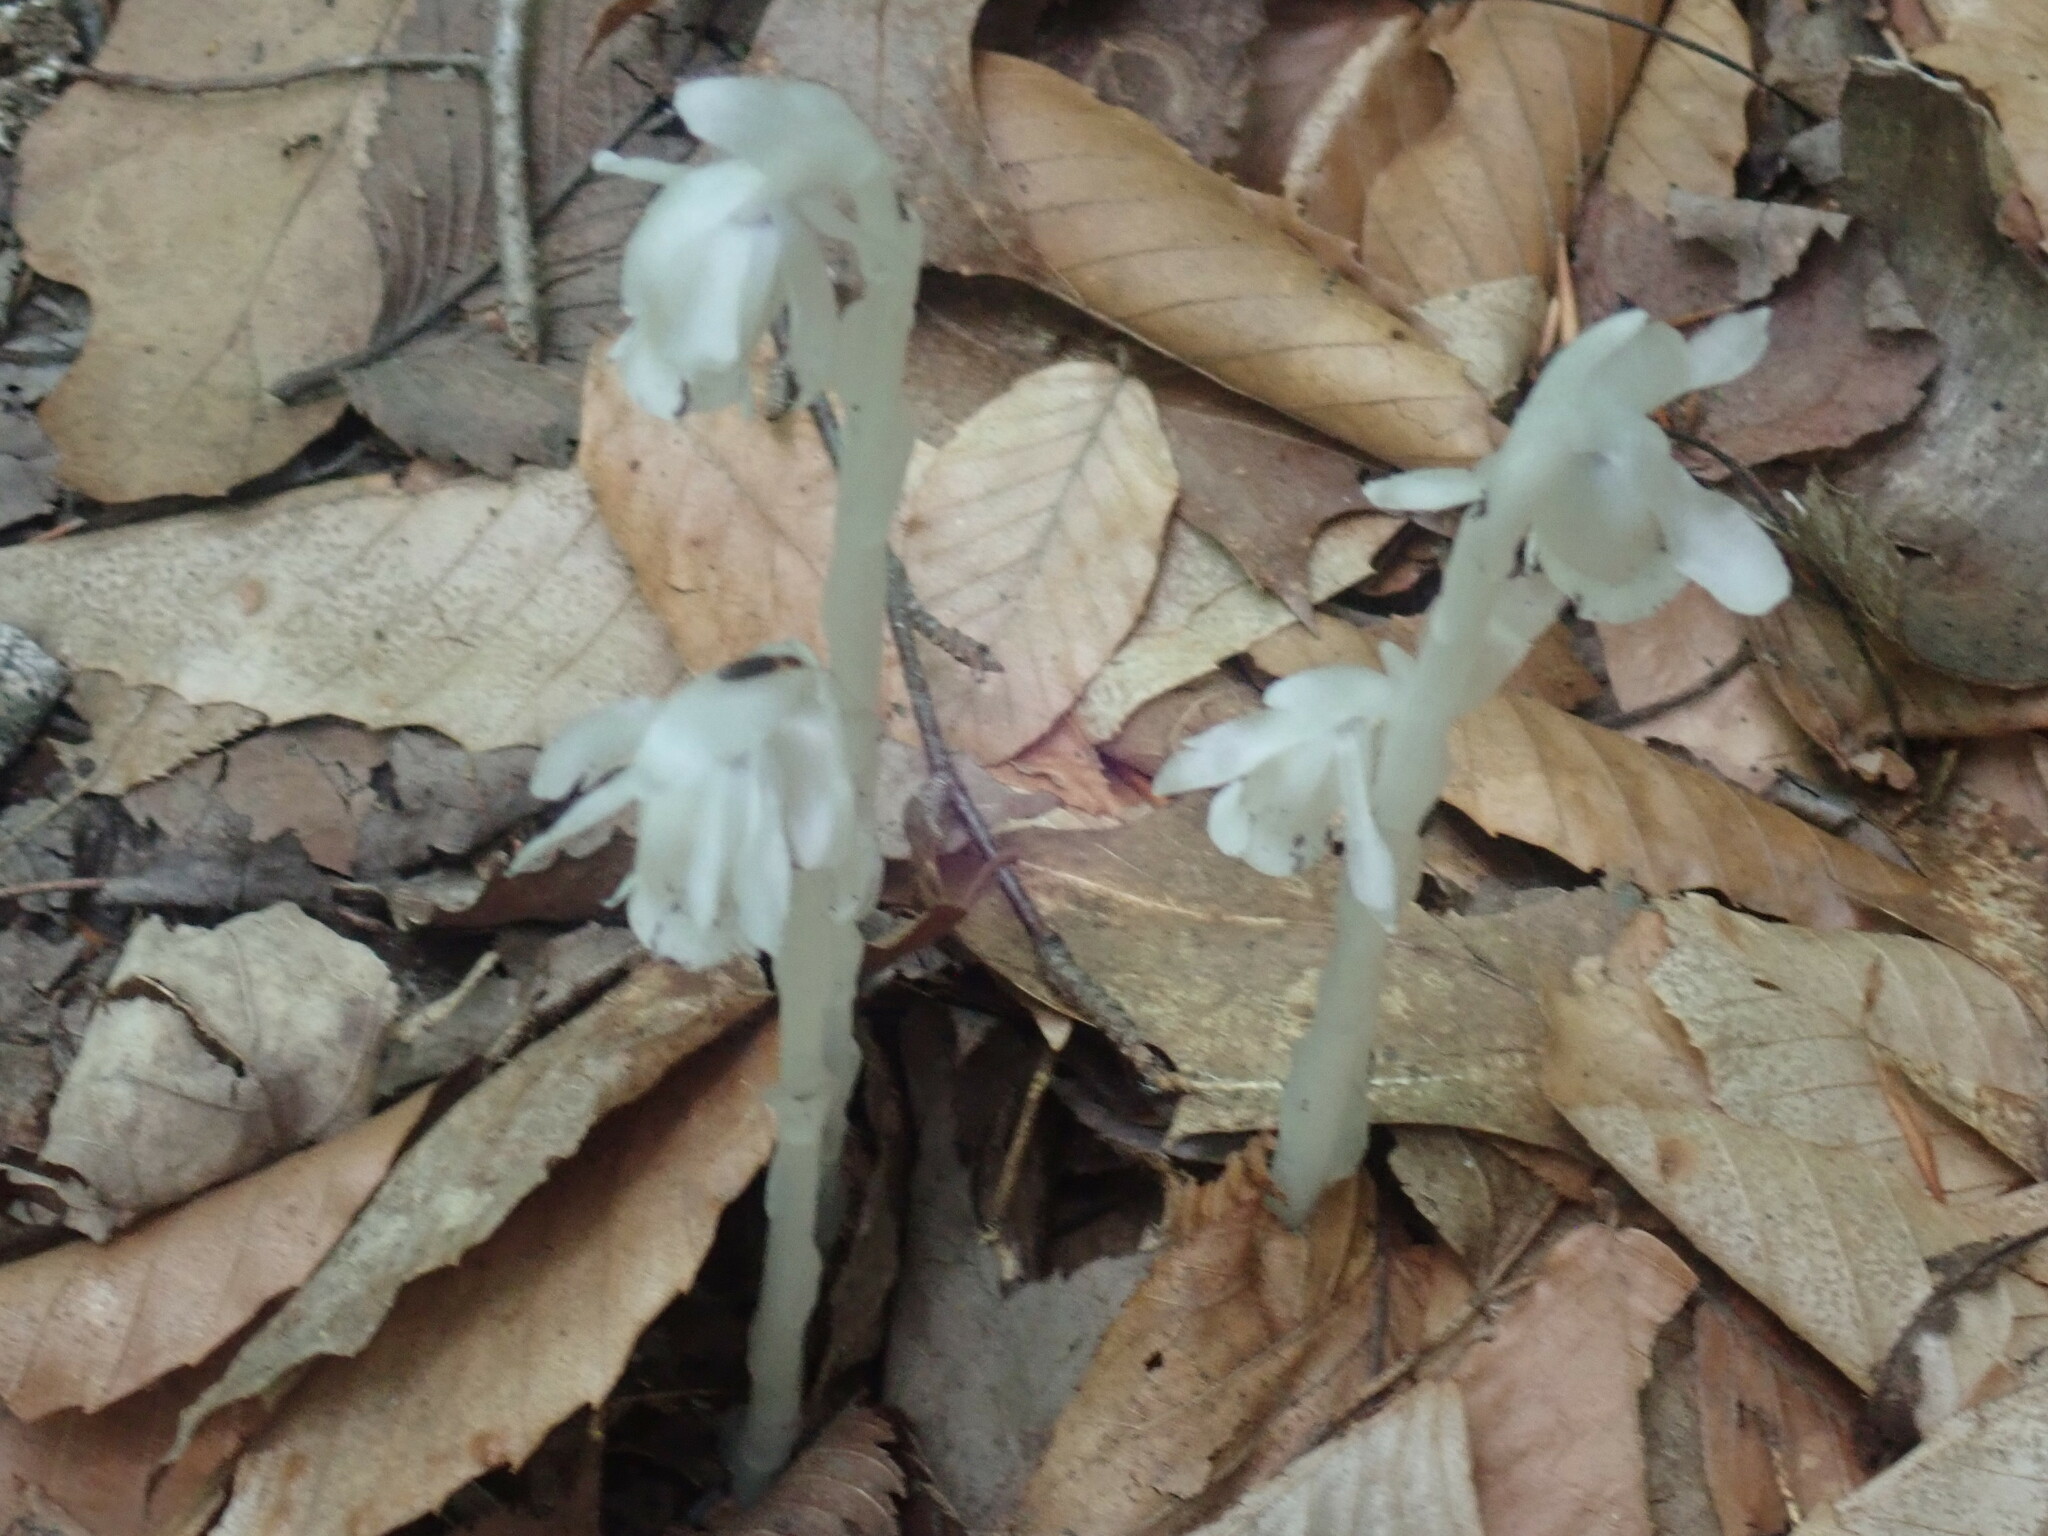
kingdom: Plantae
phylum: Tracheophyta
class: Magnoliopsida
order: Ericales
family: Ericaceae
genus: Monotropa
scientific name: Monotropa uniflora
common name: Convulsion root
